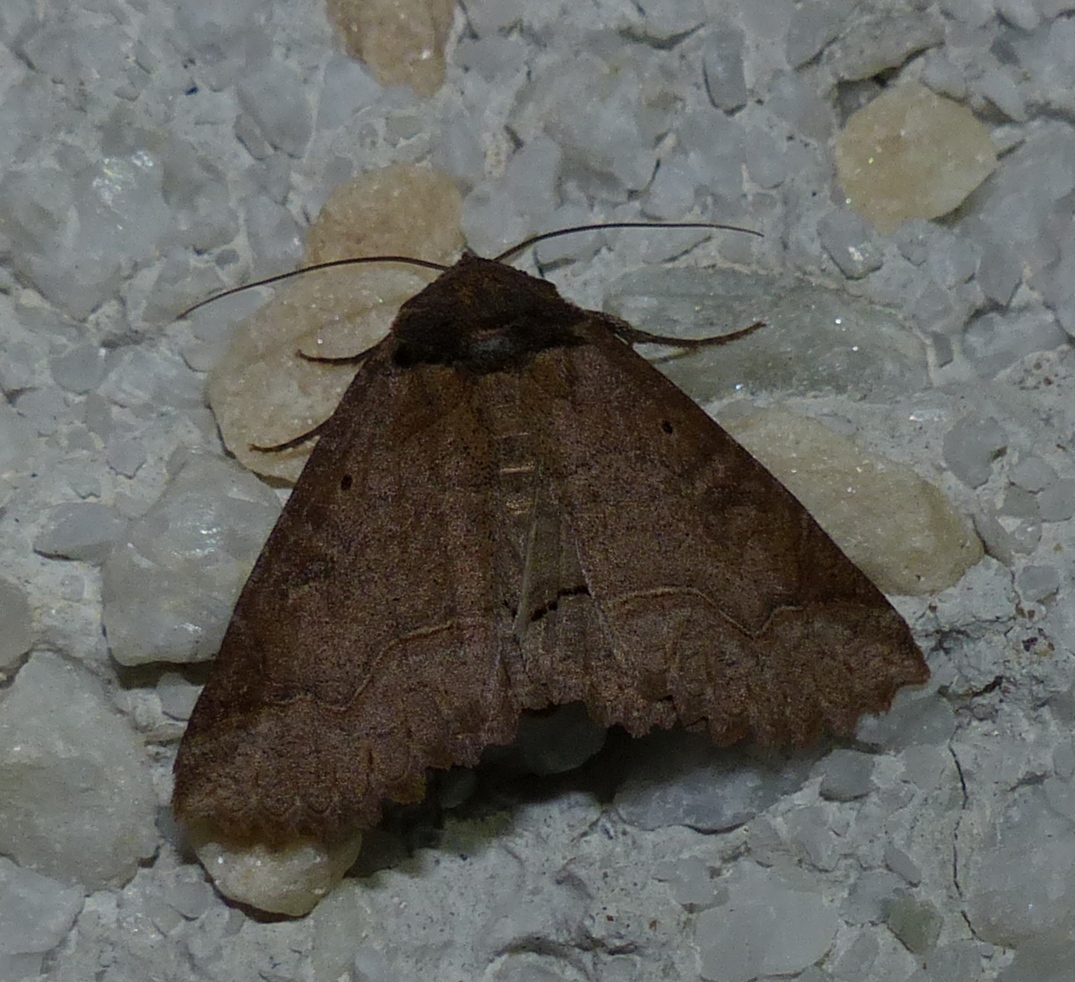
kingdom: Animalia
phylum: Arthropoda
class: Insecta
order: Lepidoptera
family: Erebidae
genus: Zale
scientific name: Zale unilineata
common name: One-lined zale moth
